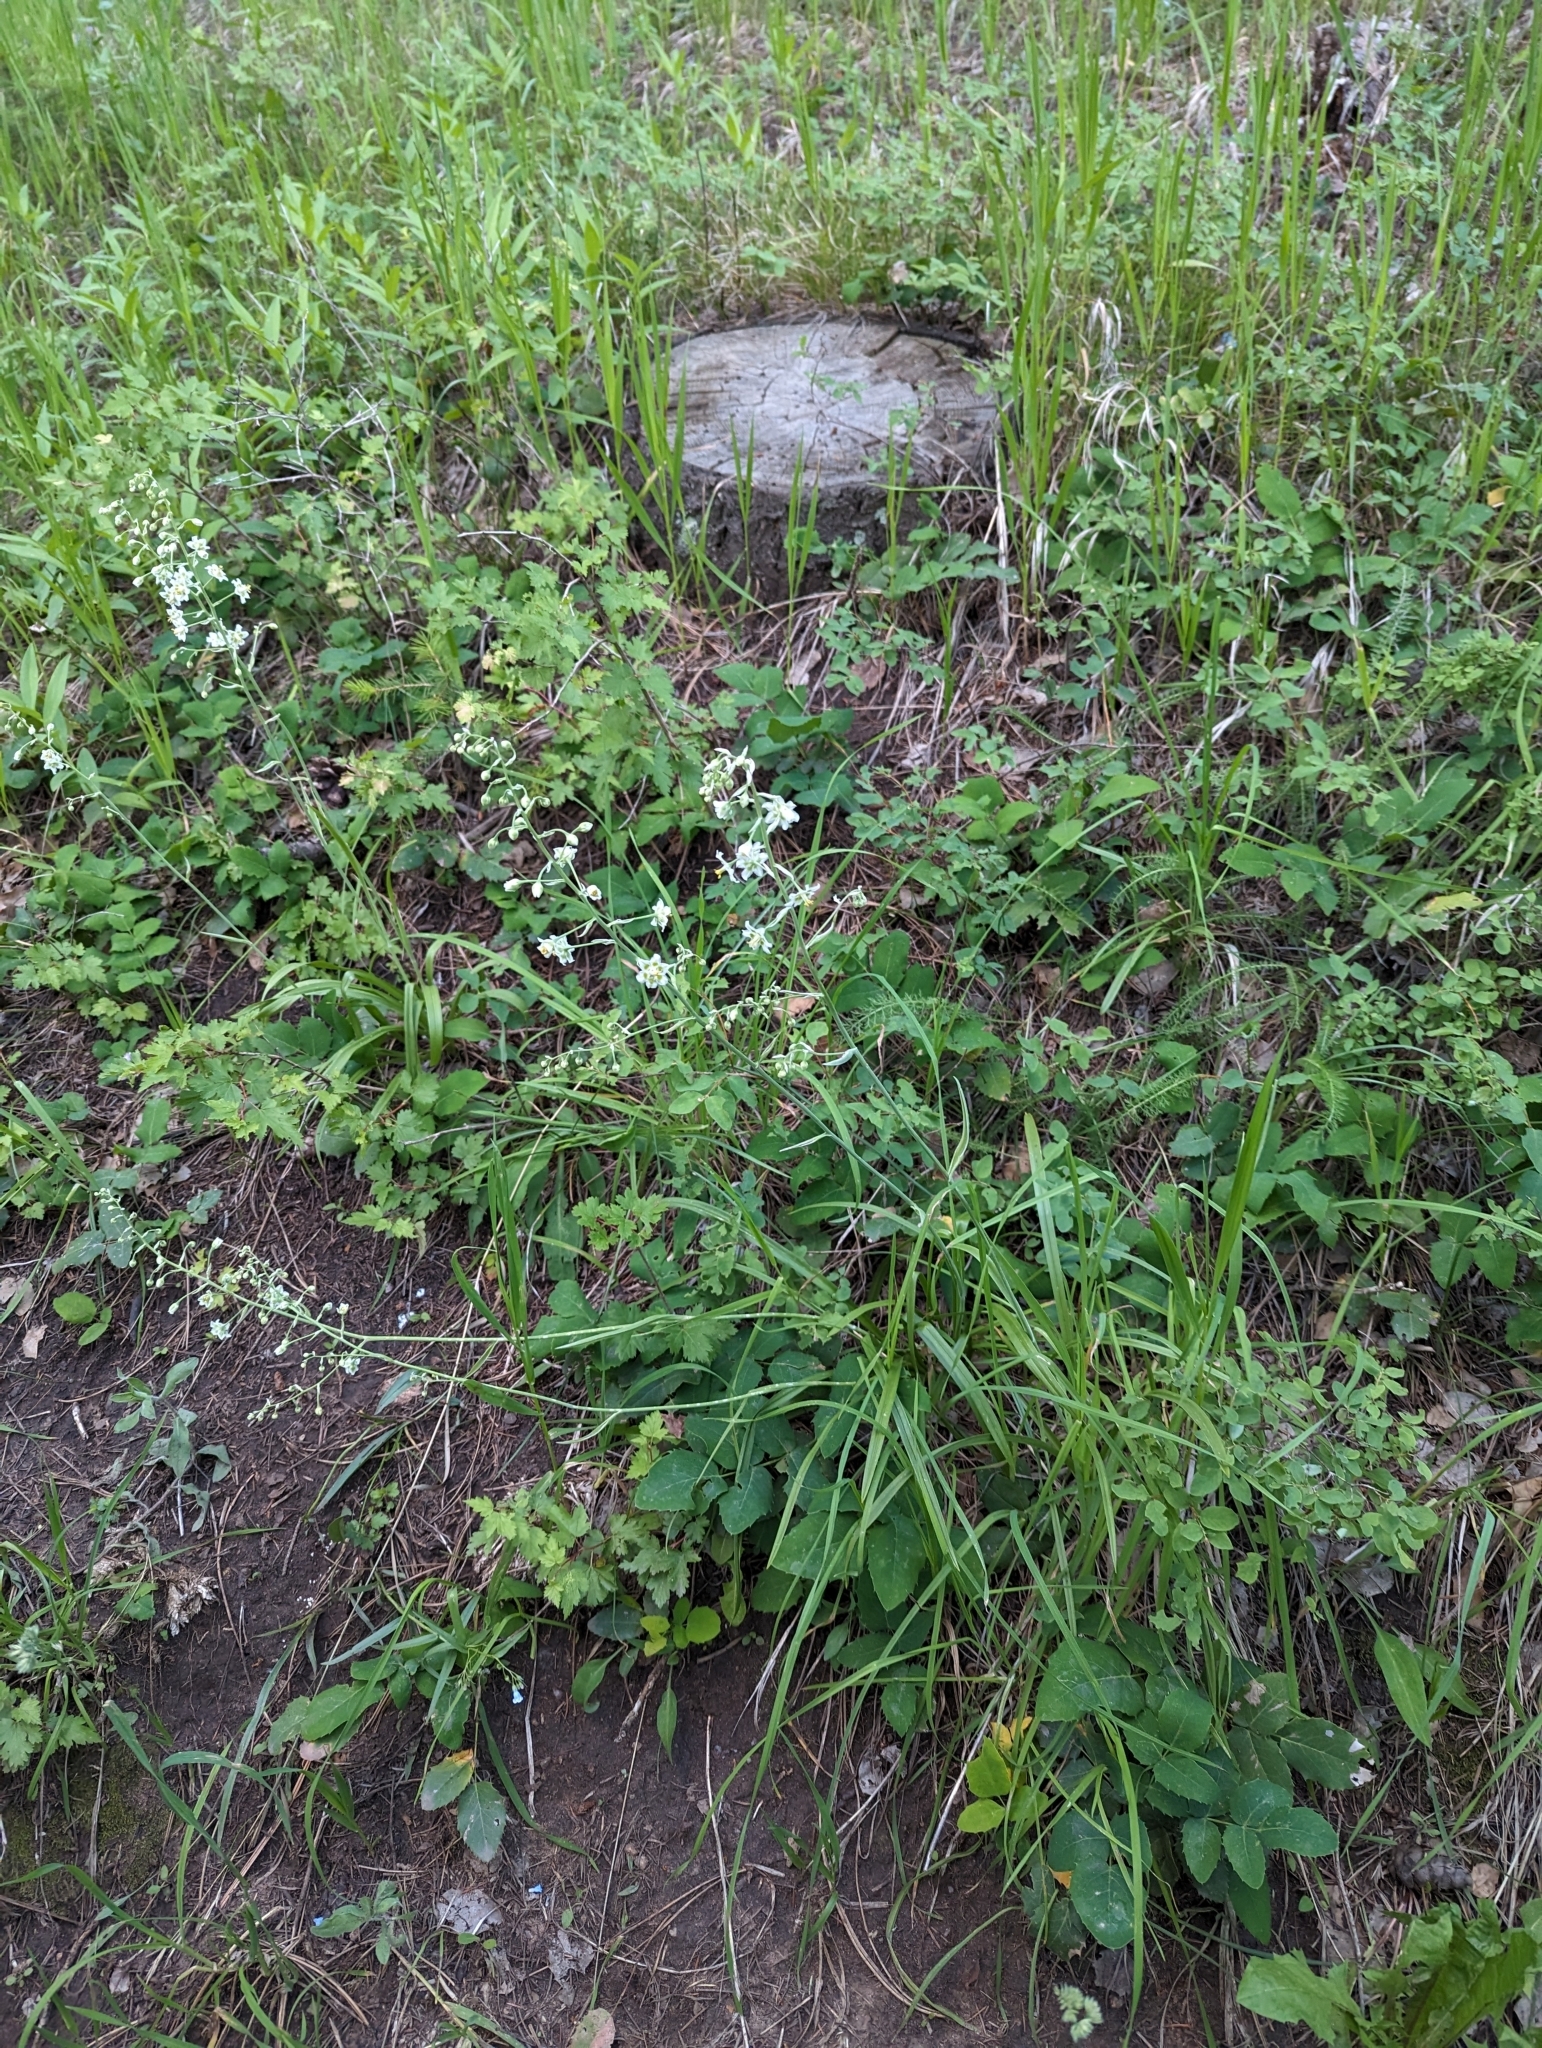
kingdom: Plantae
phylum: Tracheophyta
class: Liliopsida
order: Liliales
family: Melanthiaceae
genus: Anticlea
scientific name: Anticlea elegans
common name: Mountain death camas
